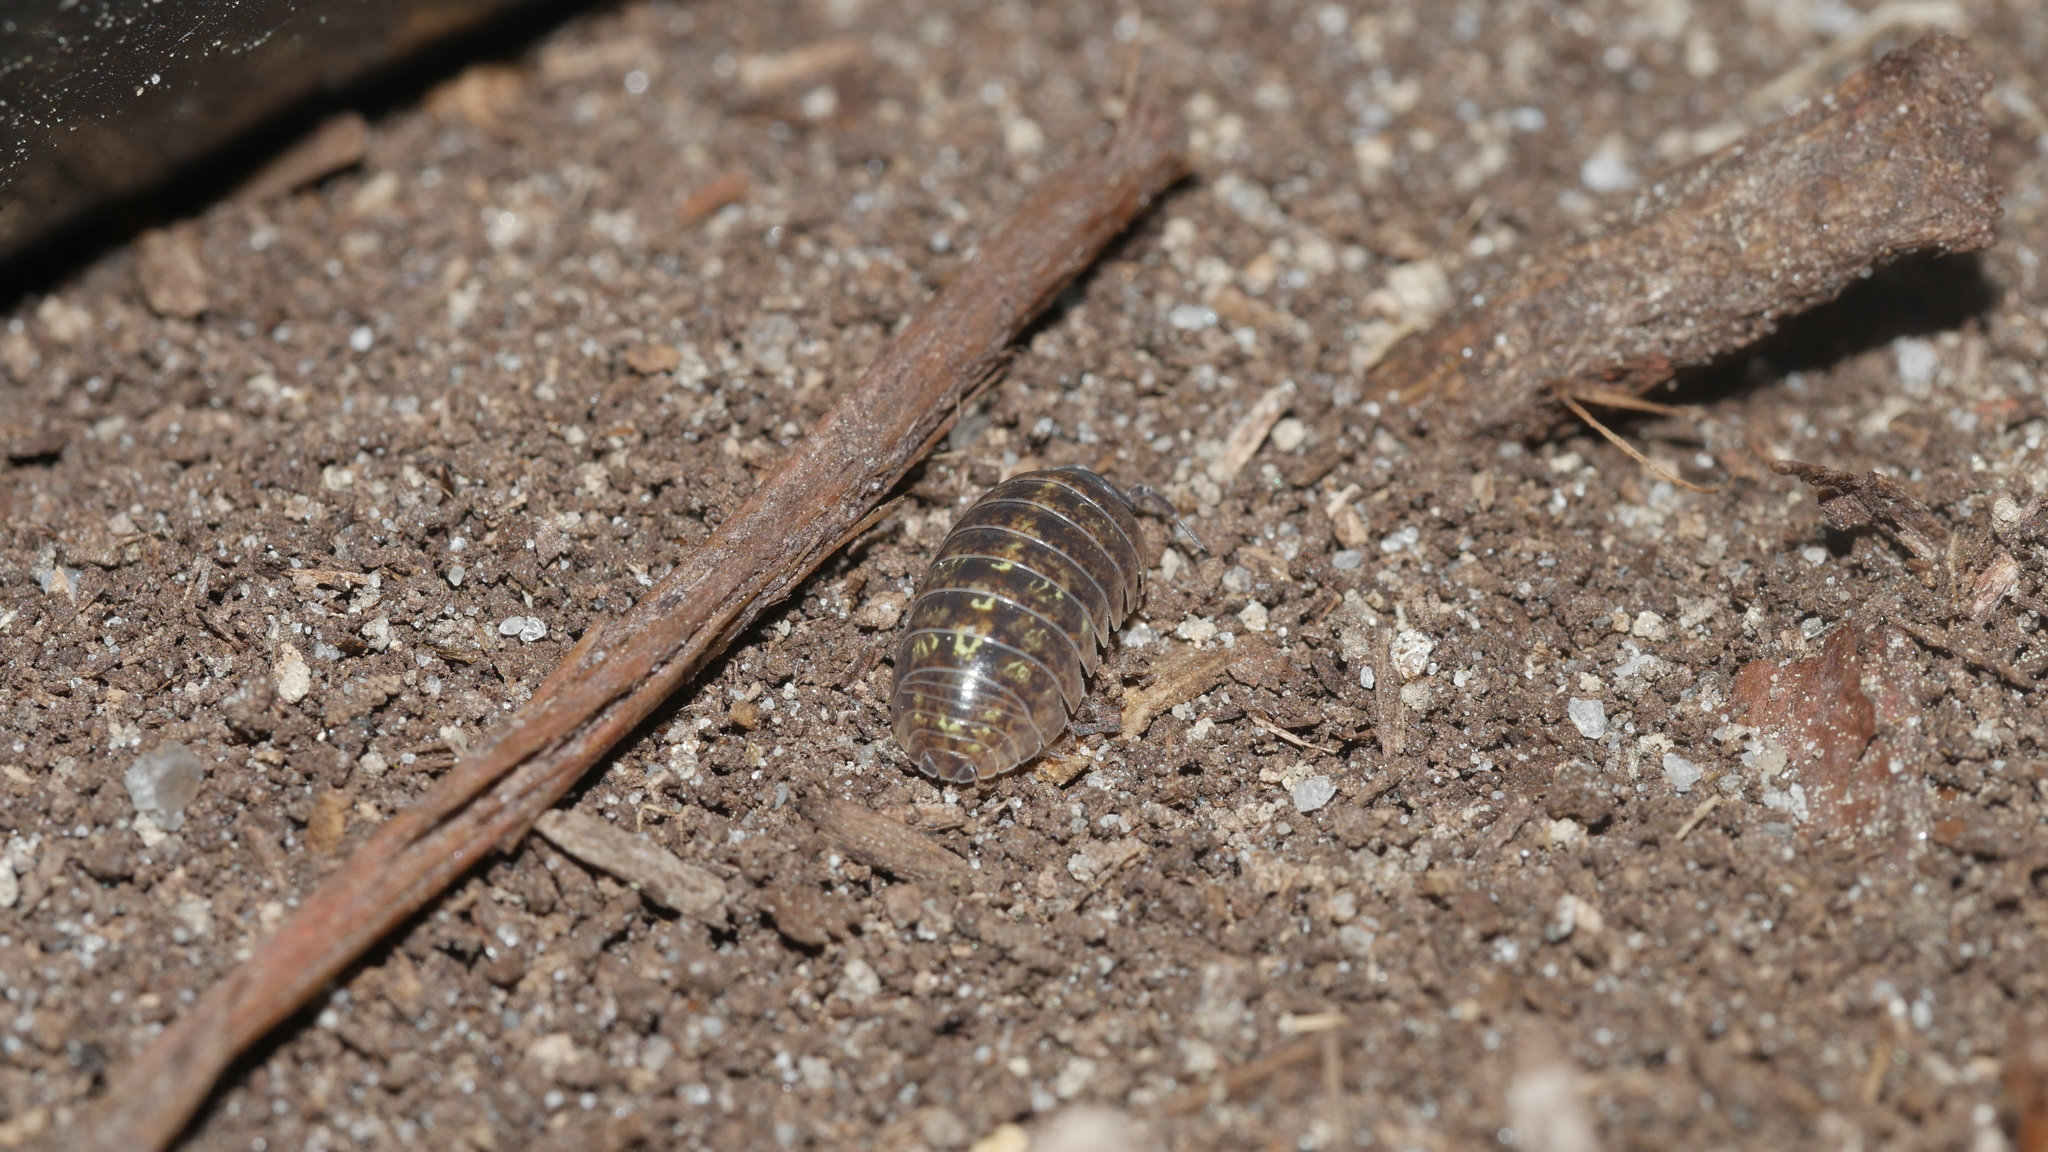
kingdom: Animalia
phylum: Arthropoda
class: Malacostraca
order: Isopoda
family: Armadillidiidae
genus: Armadillidium
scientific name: Armadillidium vulgare
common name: Common pill woodlouse
